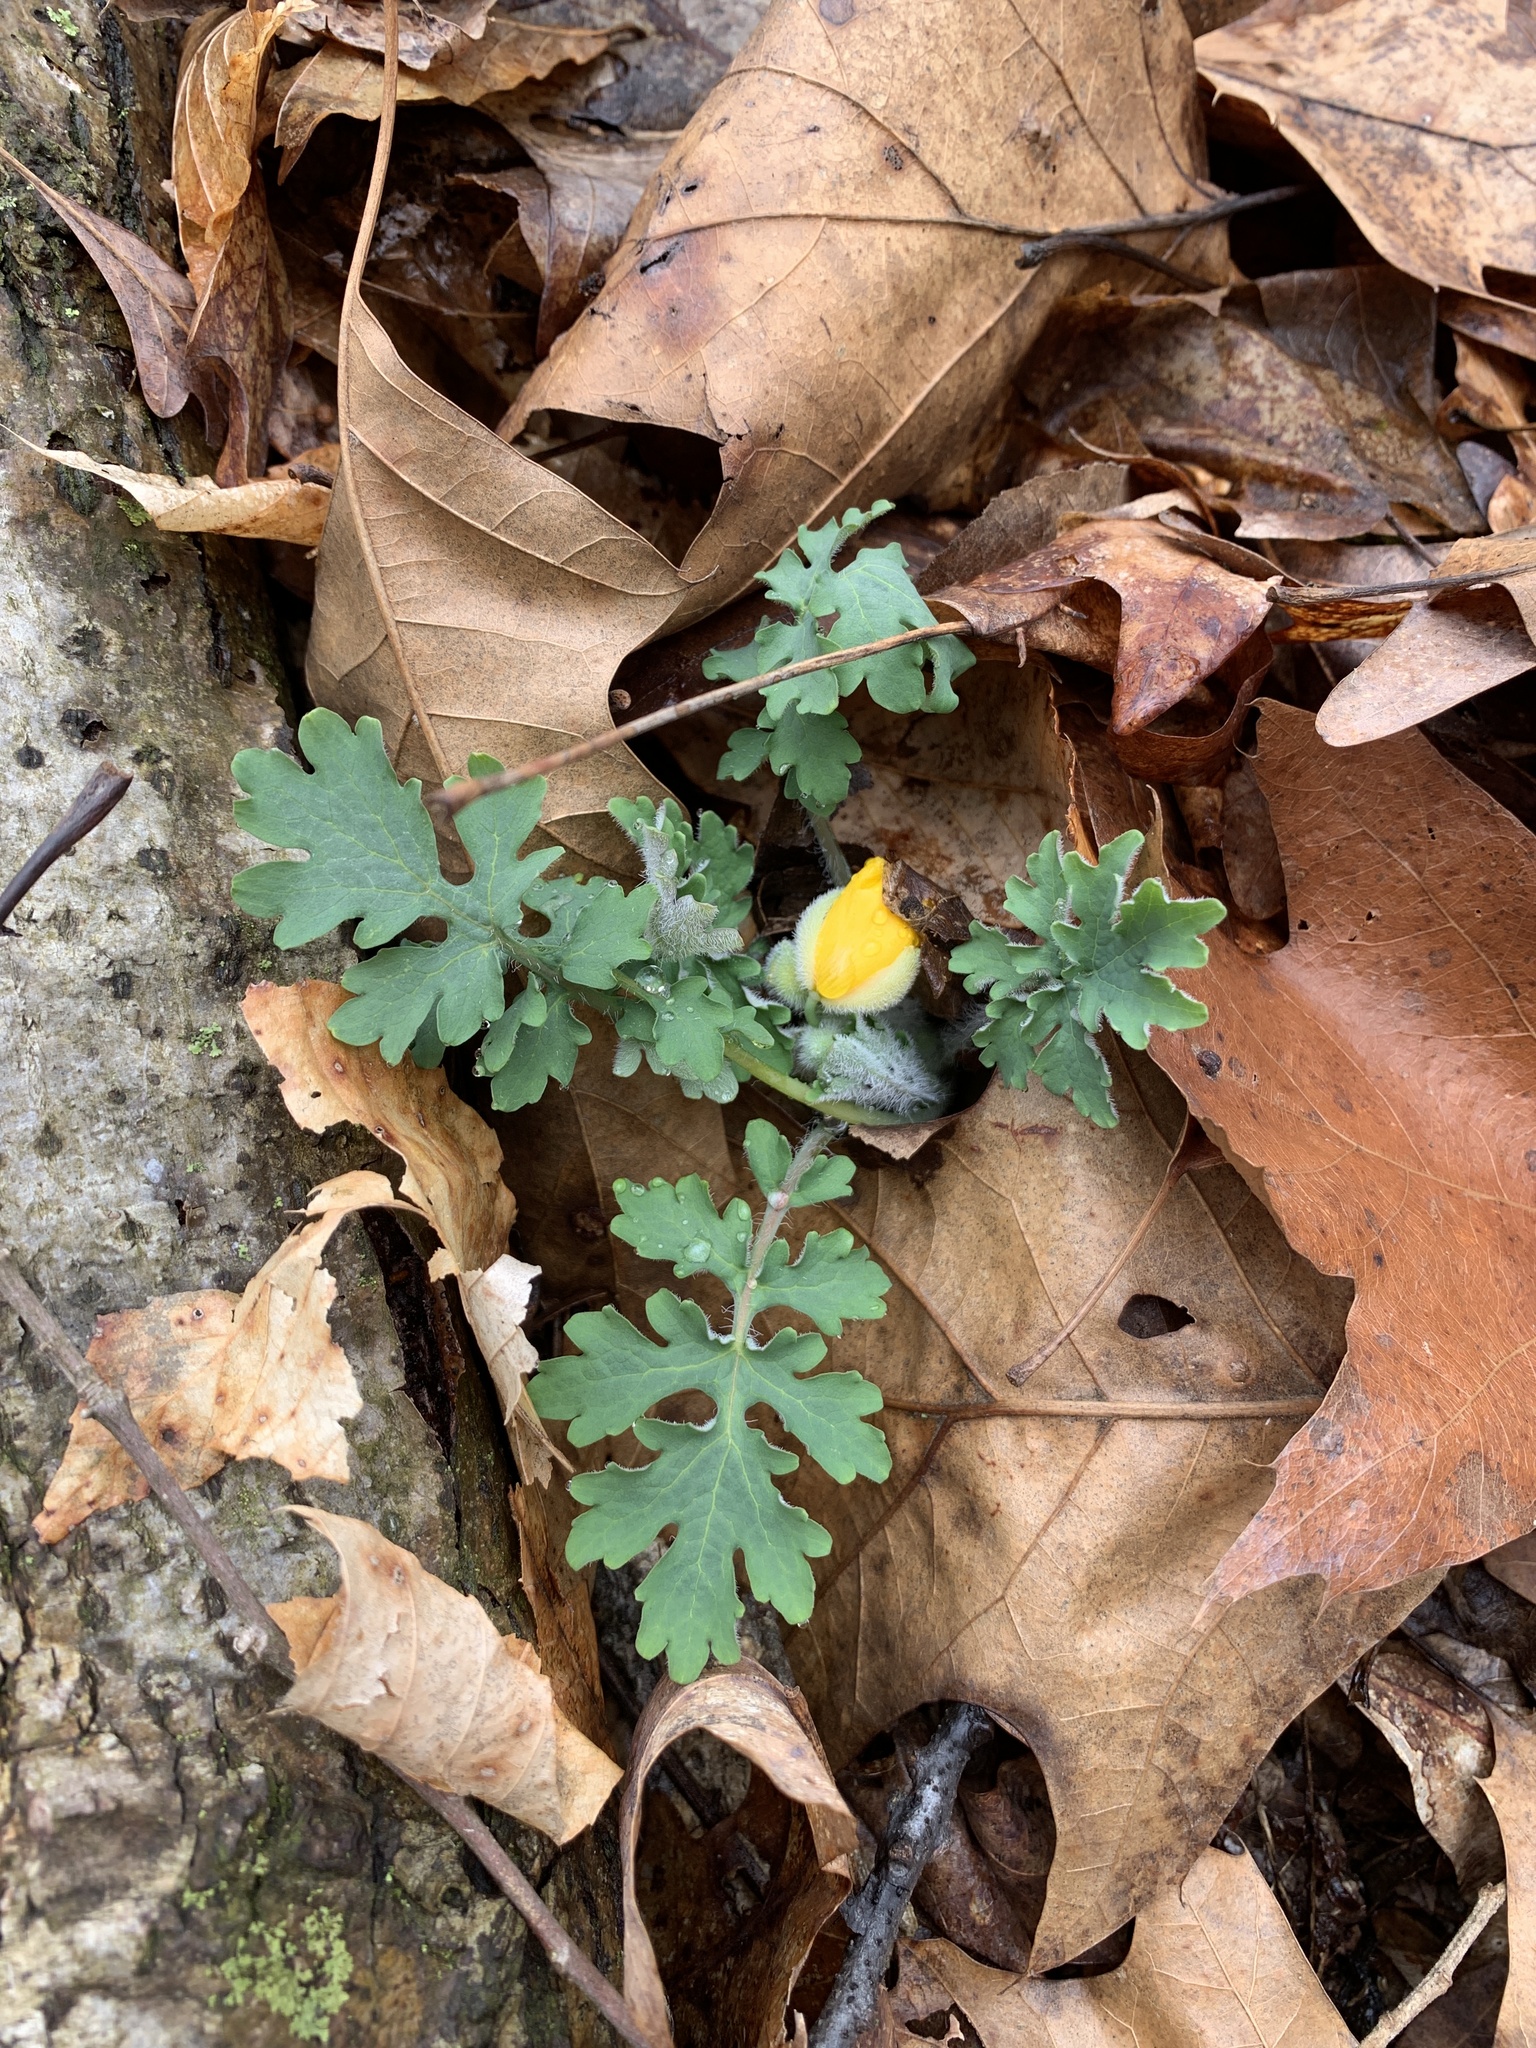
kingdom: Plantae
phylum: Tracheophyta
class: Magnoliopsida
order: Ranunculales
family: Papaveraceae
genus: Stylophorum
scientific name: Stylophorum diphyllum
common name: Celandine poppy
